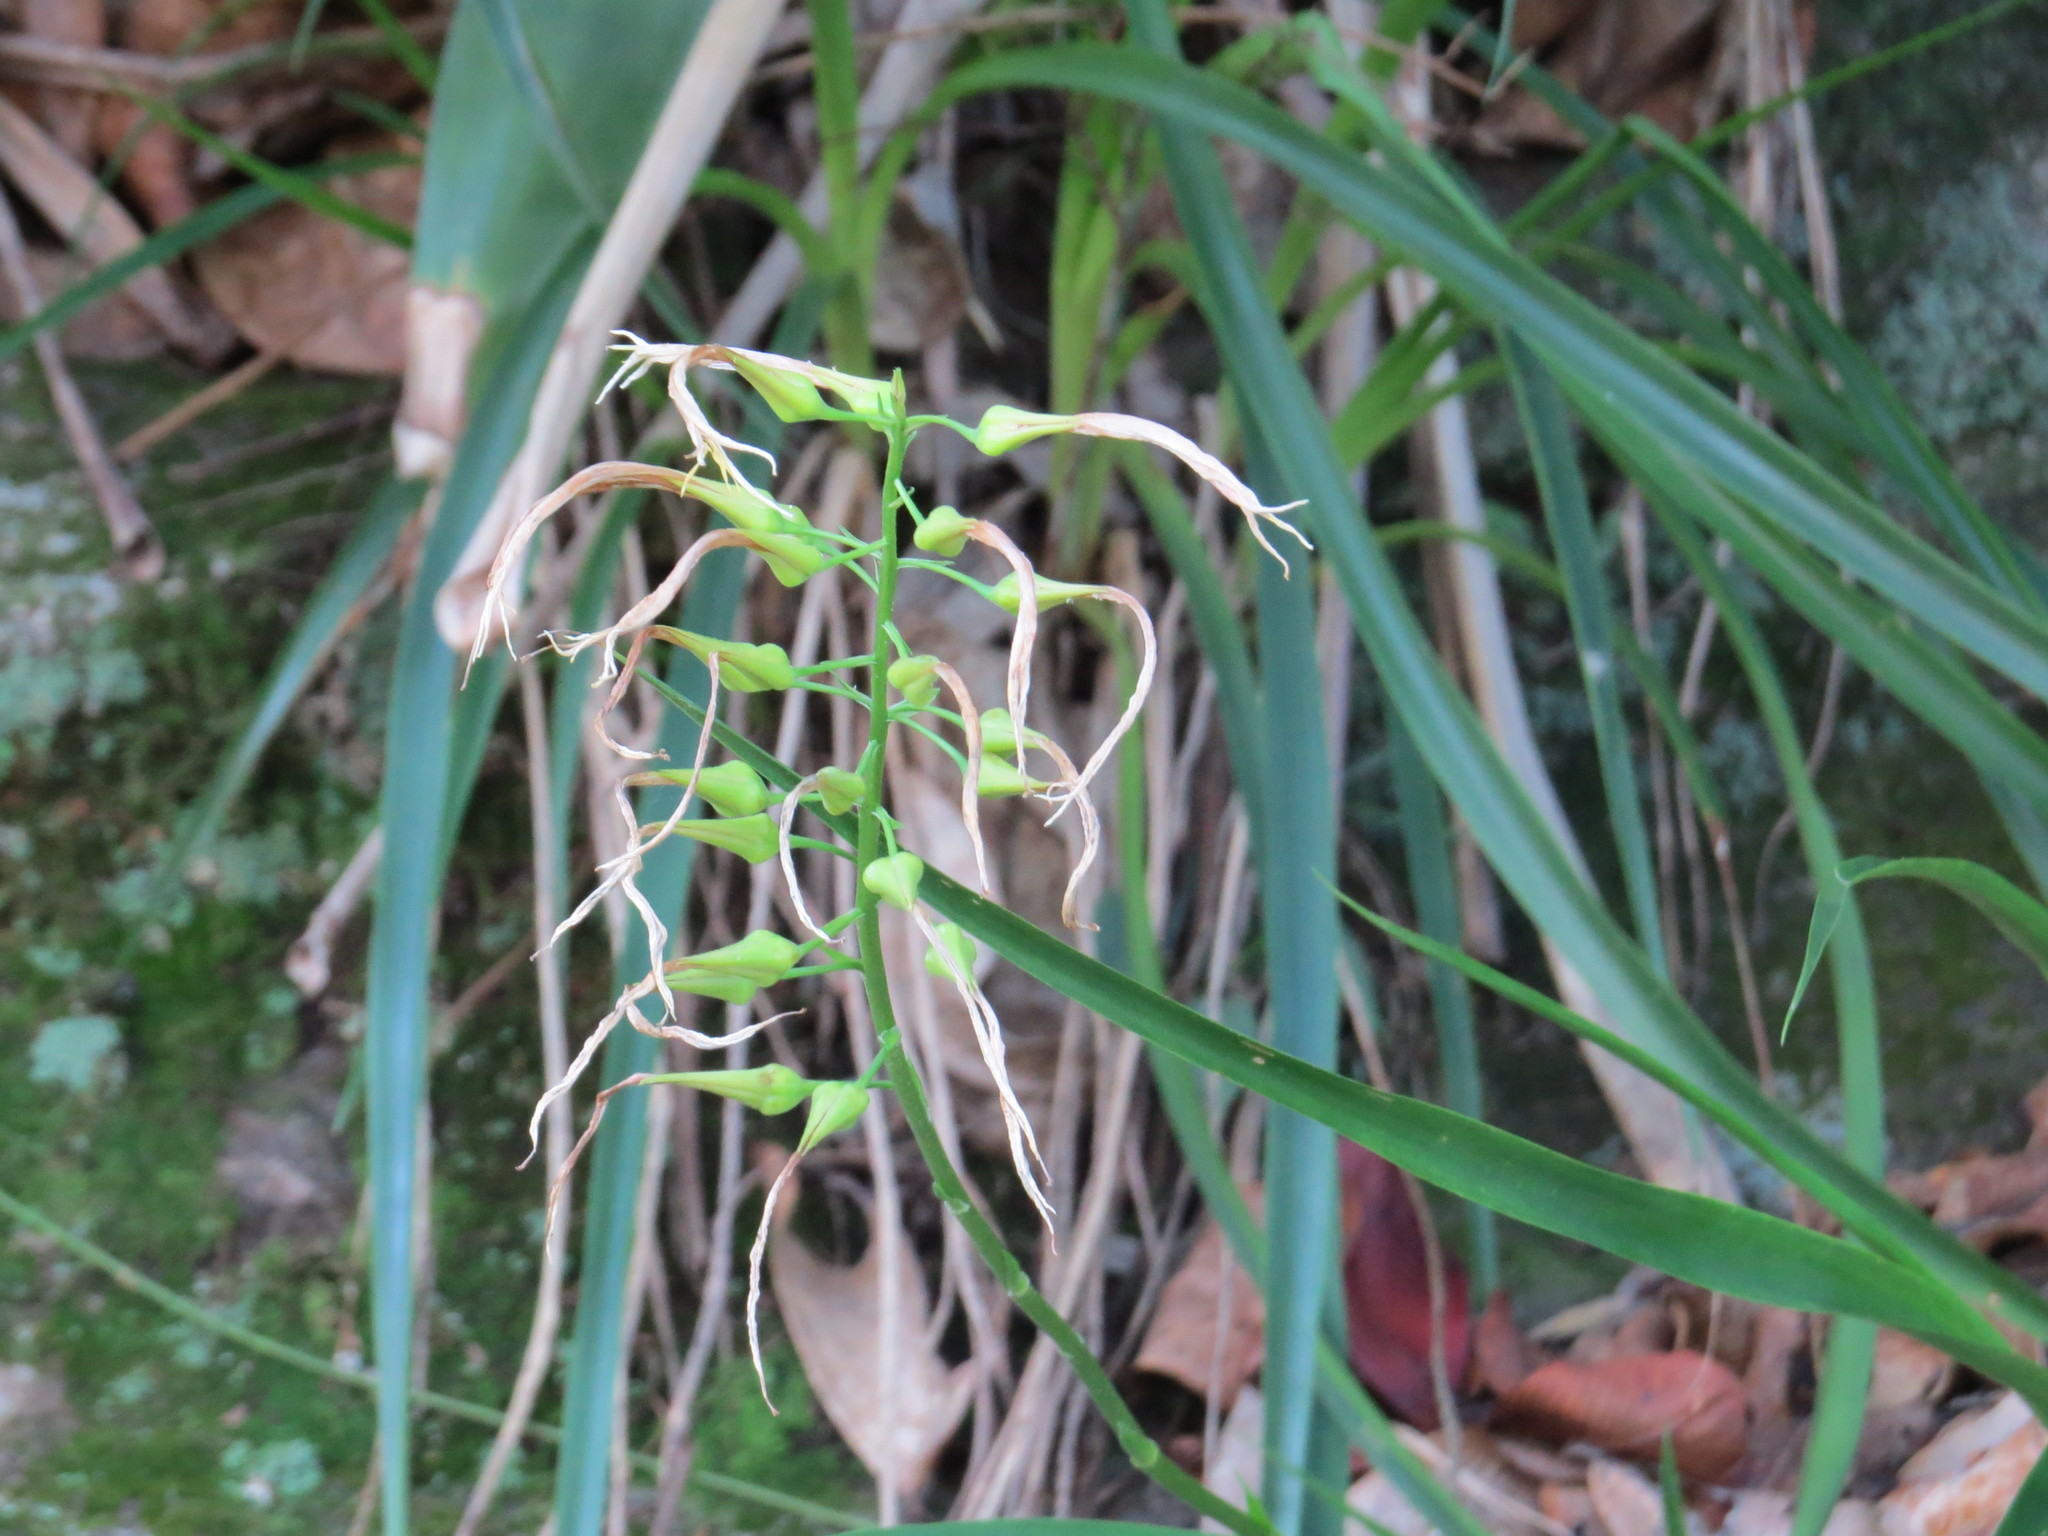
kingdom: Plantae
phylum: Tracheophyta
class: Liliopsida
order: Poales
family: Bromeliaceae
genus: Pitcairnia
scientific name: Pitcairnia albiflos
